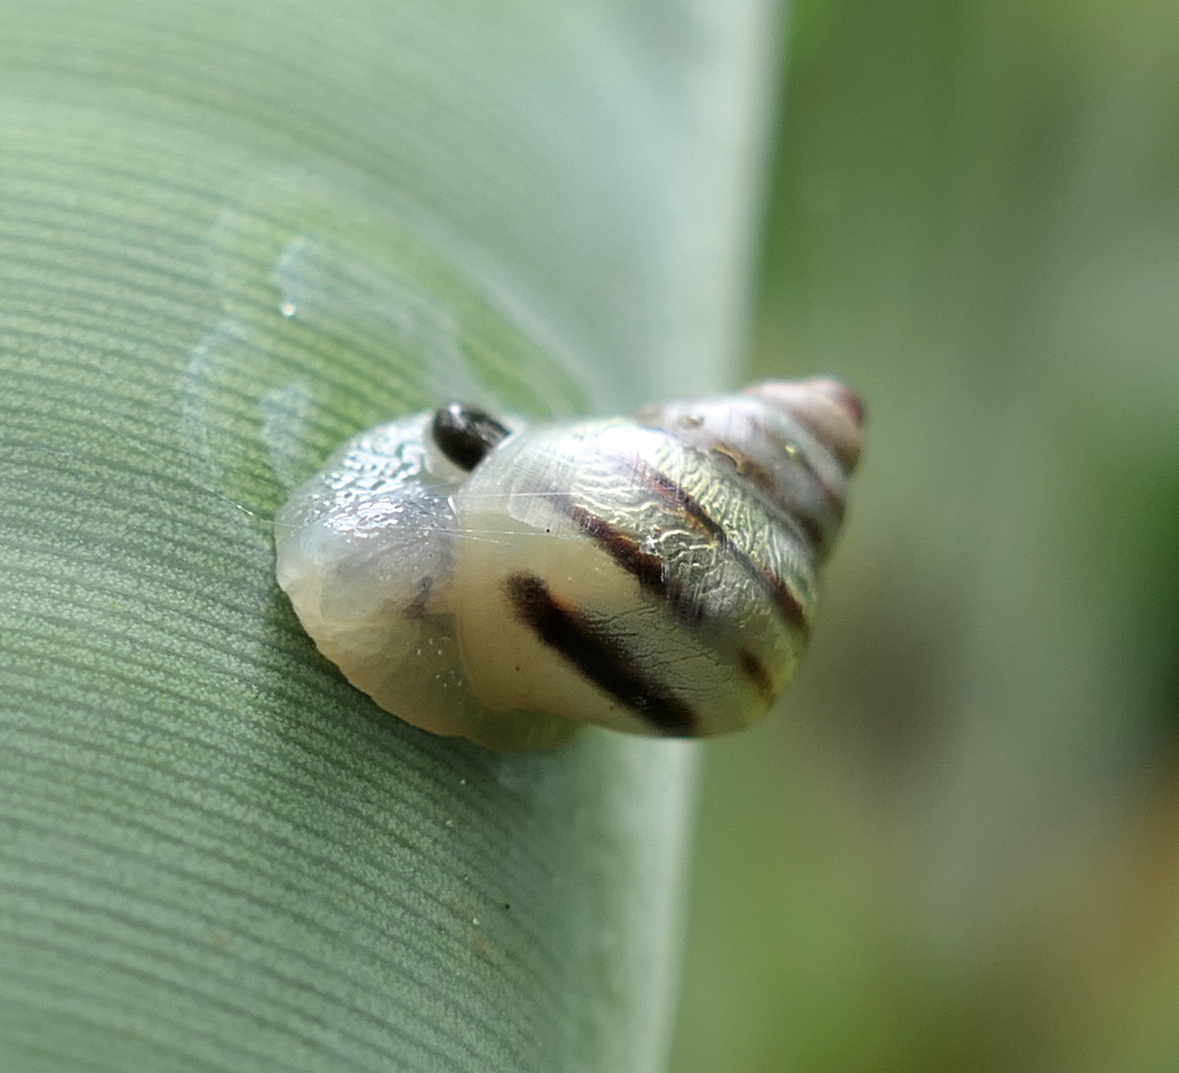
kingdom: Animalia
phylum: Mollusca
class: Gastropoda
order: Stylommatophora
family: Bulimulidae
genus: Drymaeus
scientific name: Drymaeus
